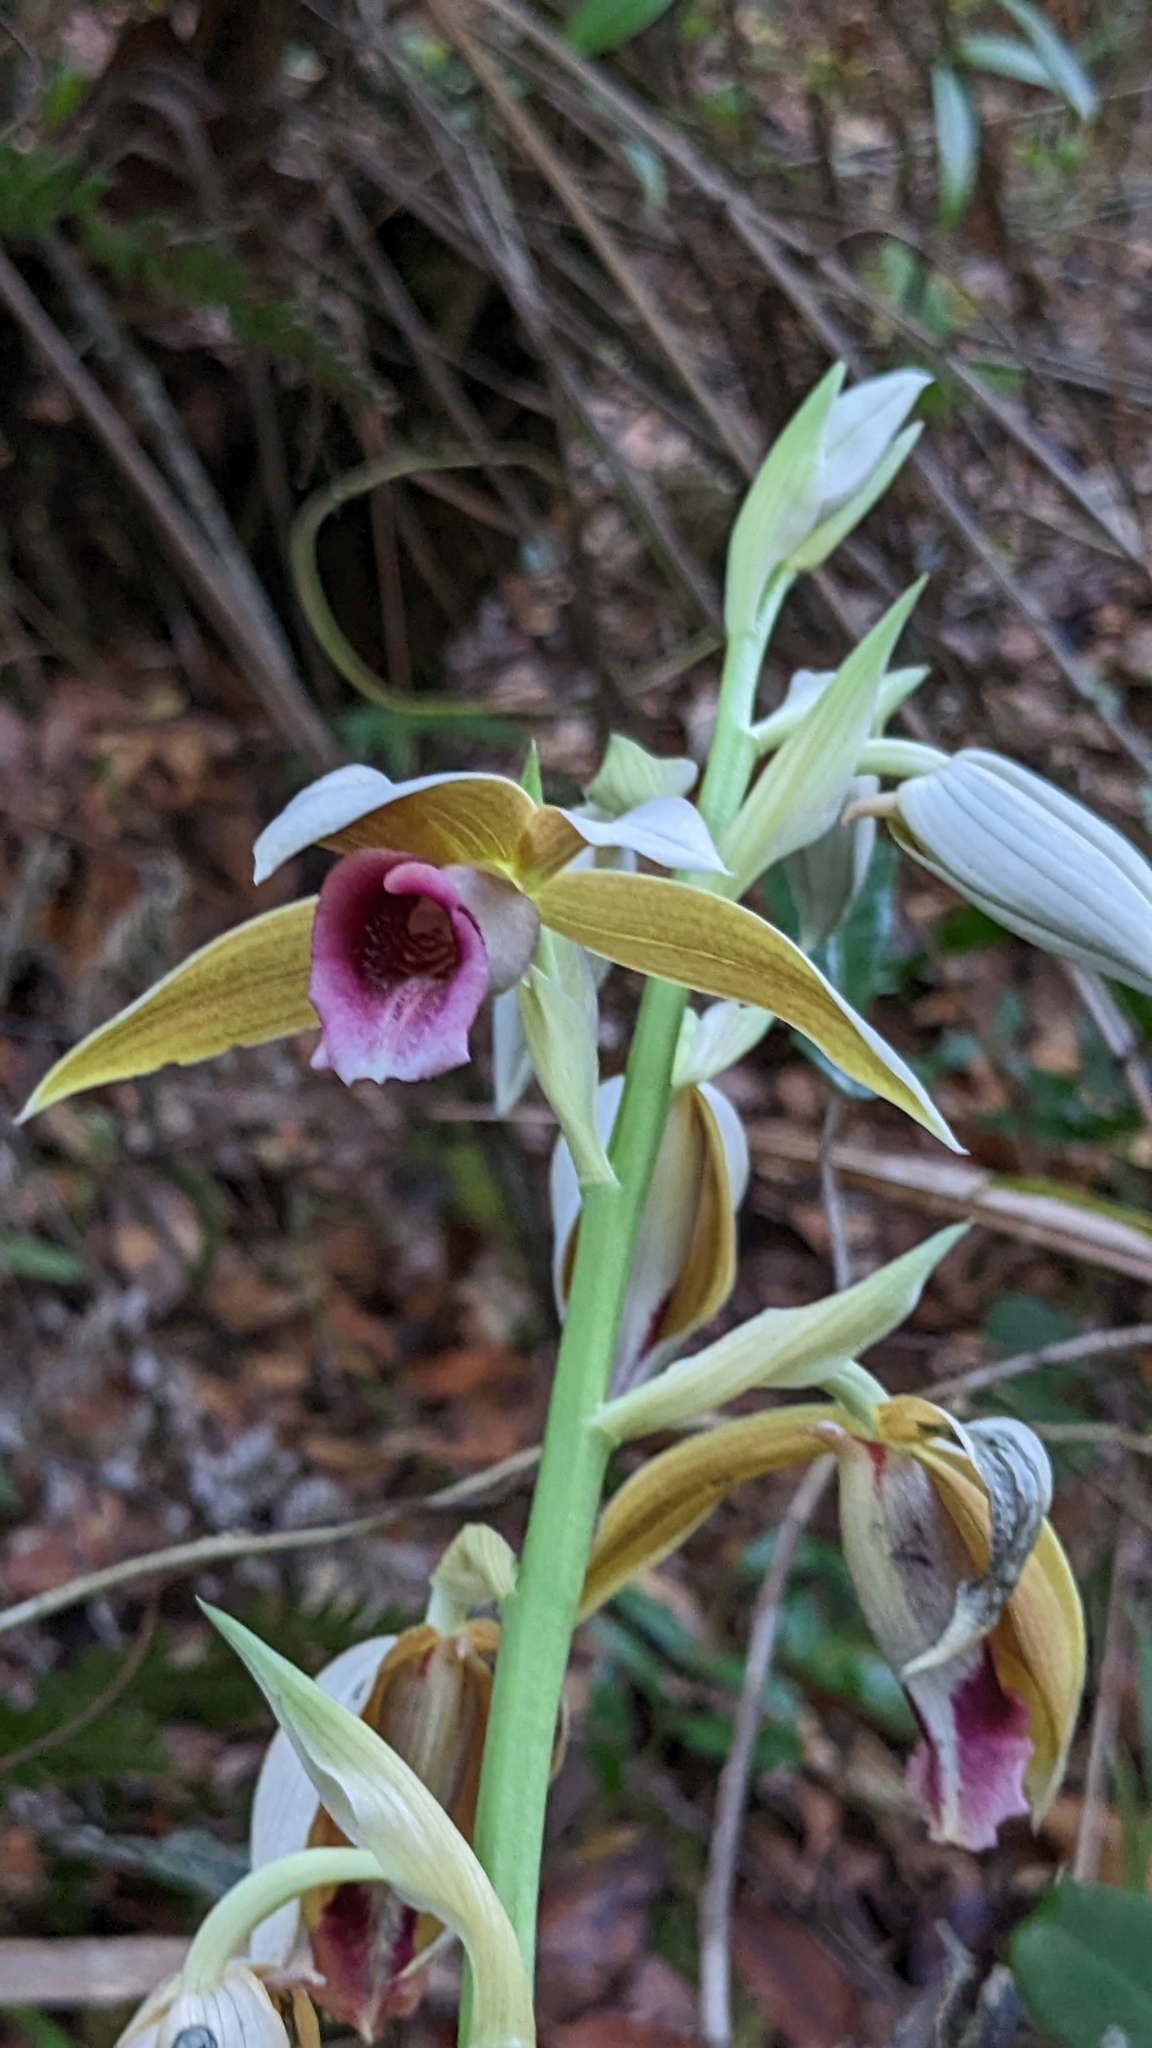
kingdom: Plantae
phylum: Tracheophyta
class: Liliopsida
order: Asparagales
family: Orchidaceae
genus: Calanthe
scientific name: Calanthe tankervilleae
